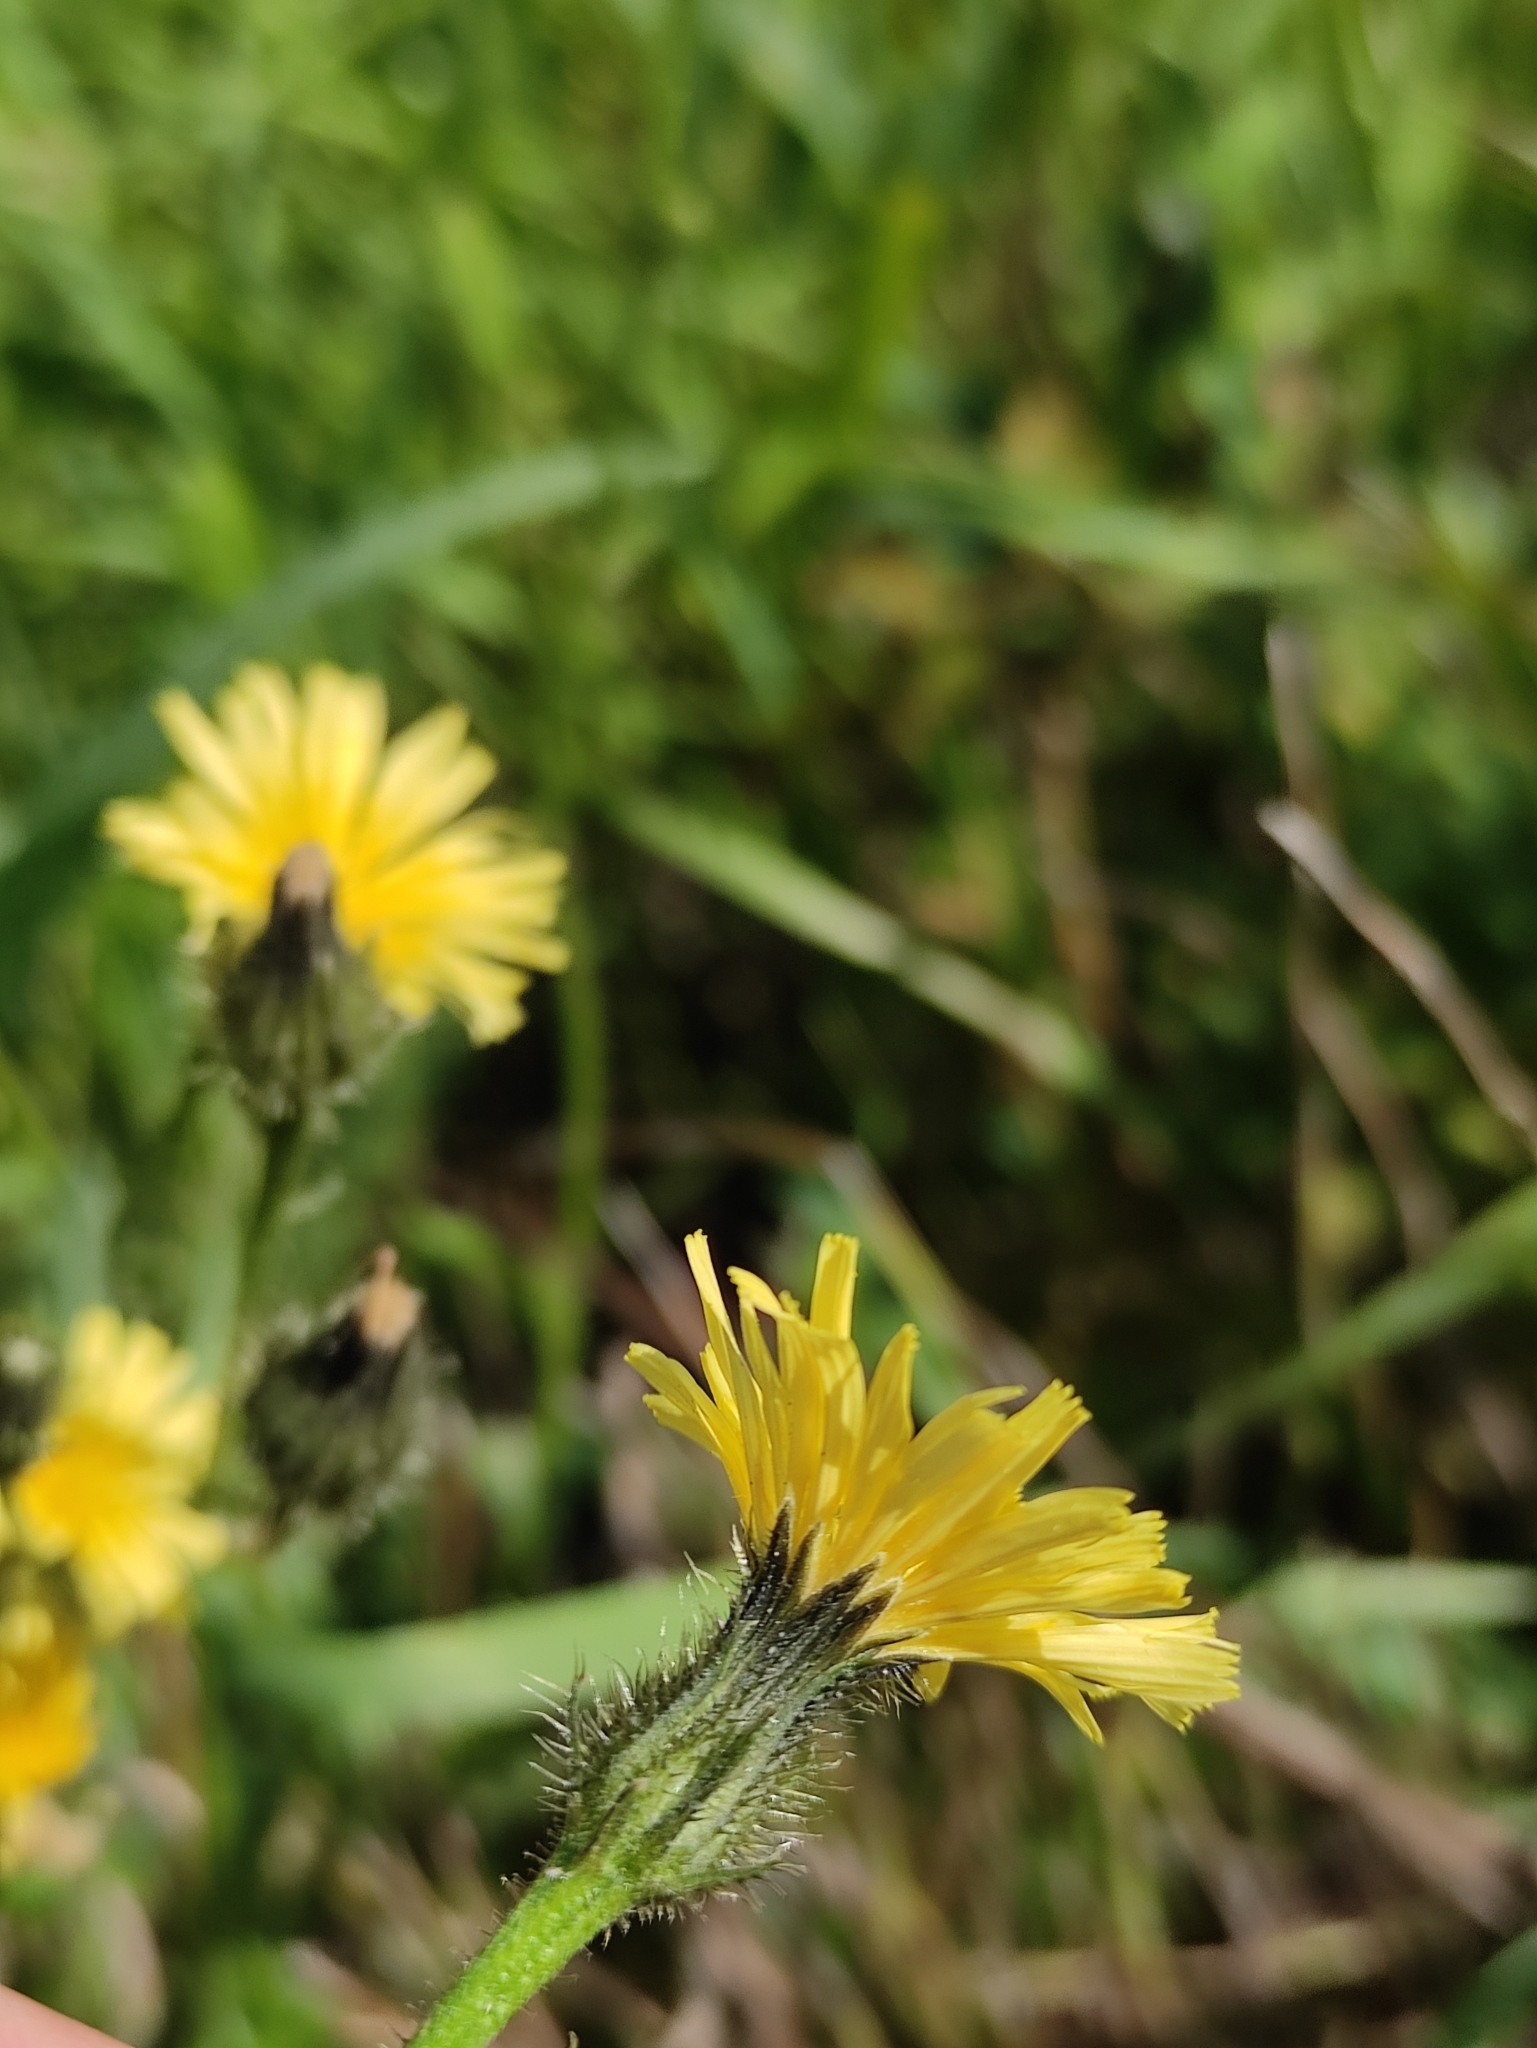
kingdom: Plantae
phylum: Tracheophyta
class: Magnoliopsida
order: Asterales
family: Asteraceae
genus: Picris
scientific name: Picris davurica
